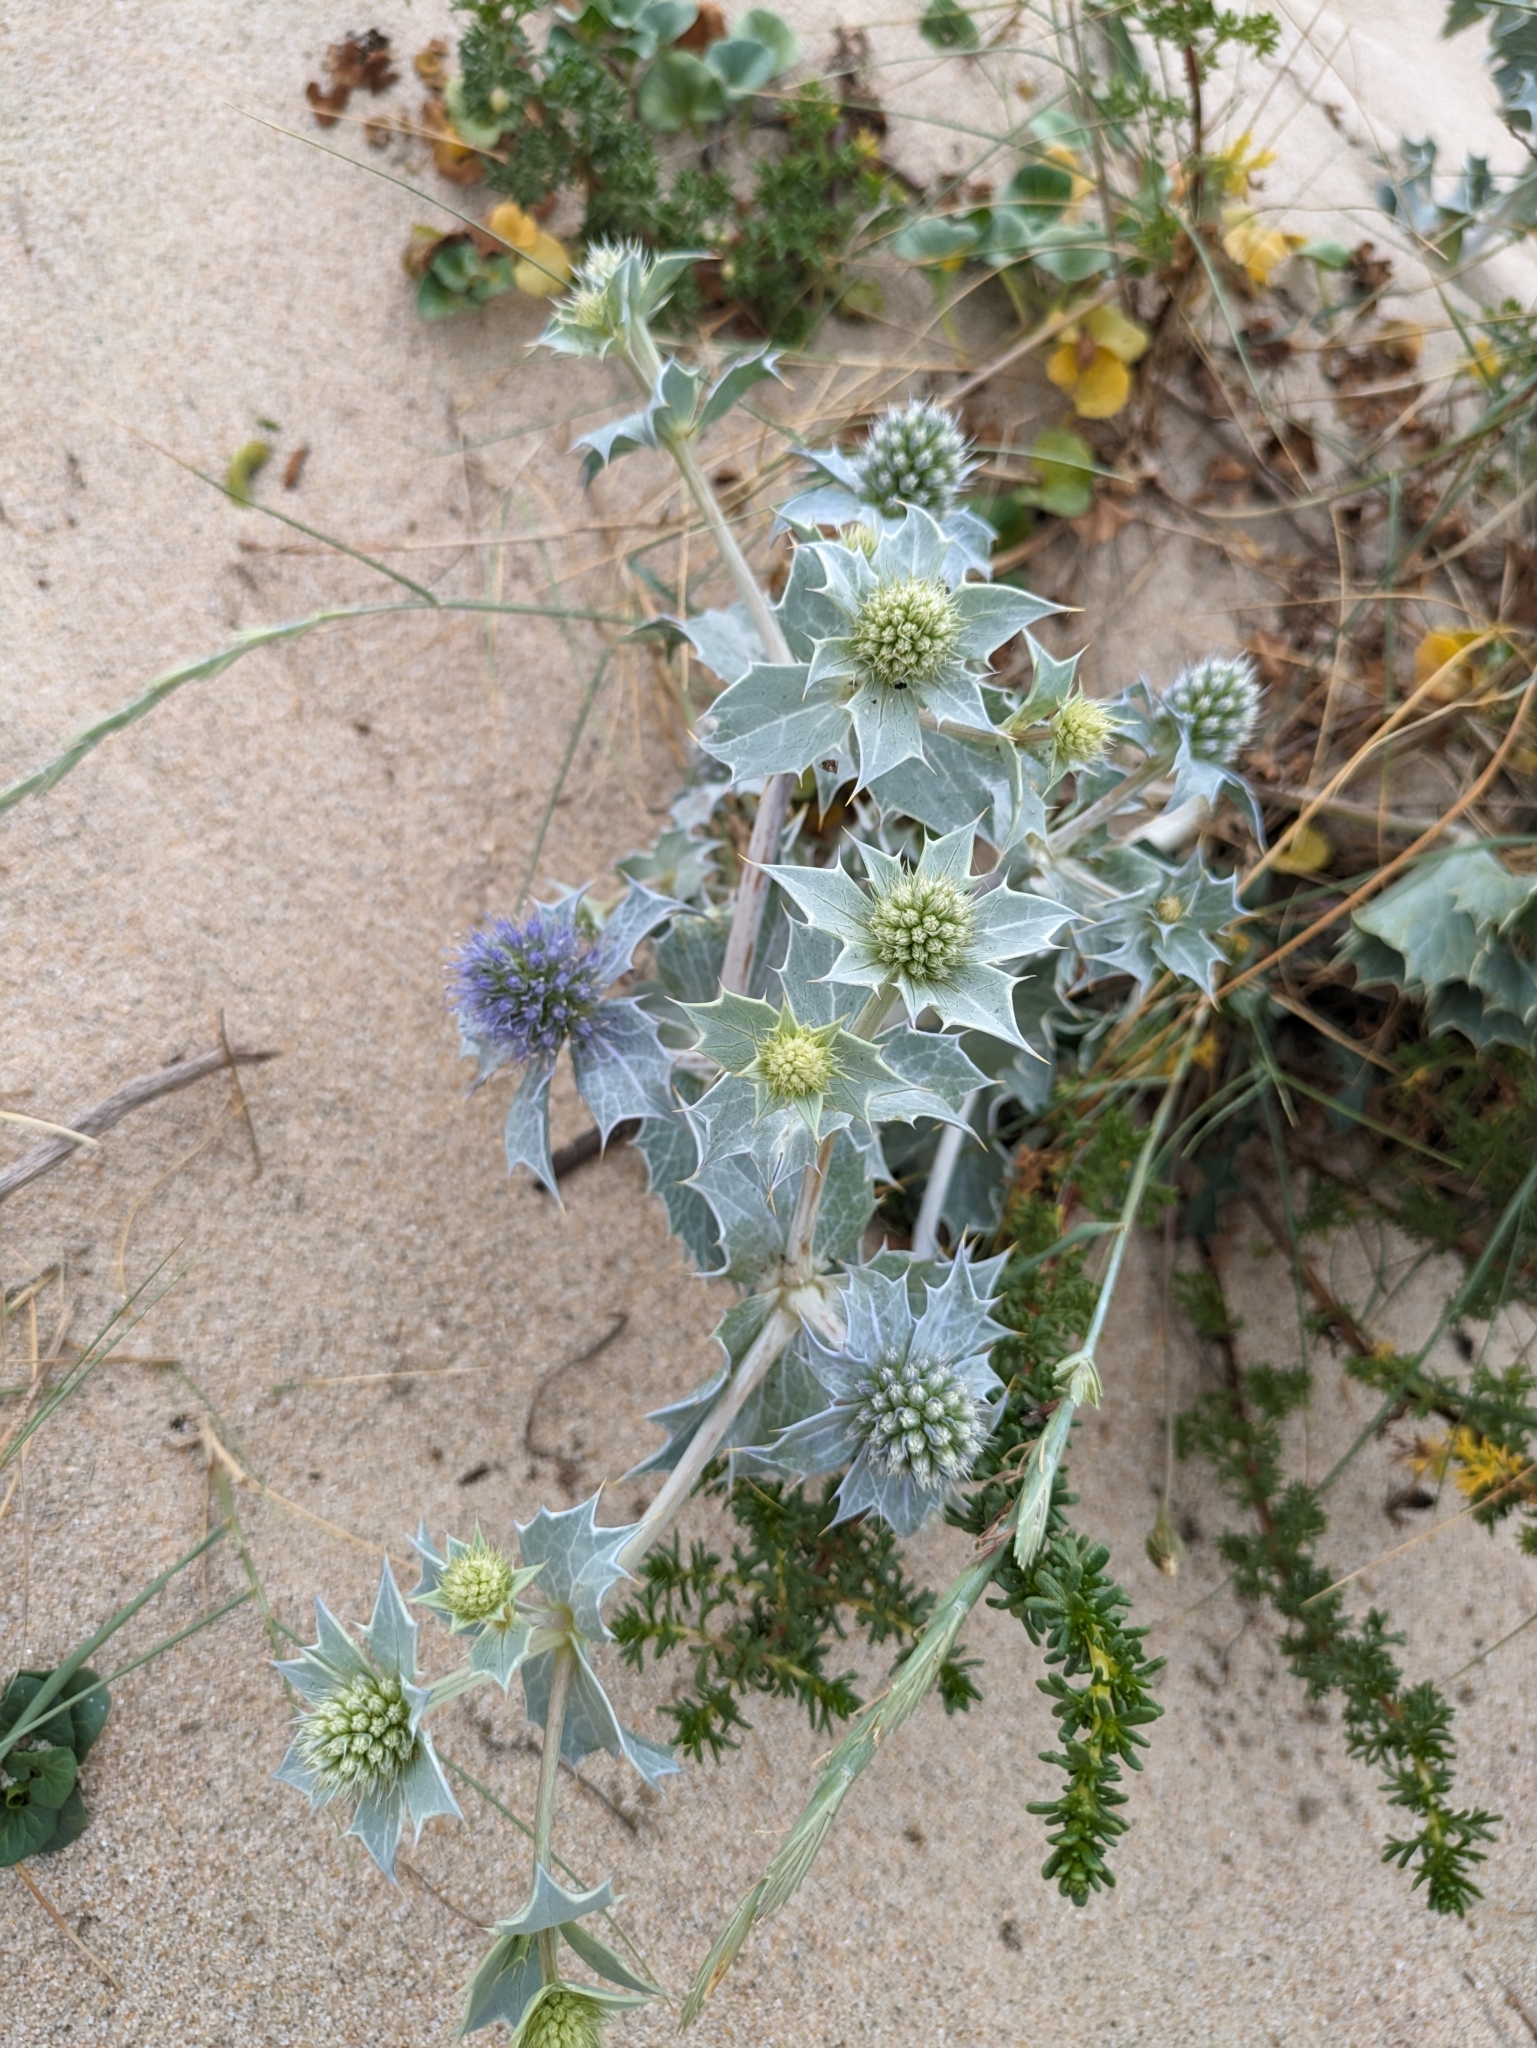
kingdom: Plantae
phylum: Tracheophyta
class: Magnoliopsida
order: Apiales
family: Apiaceae
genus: Eryngium
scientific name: Eryngium maritimum
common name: Sea-holly
